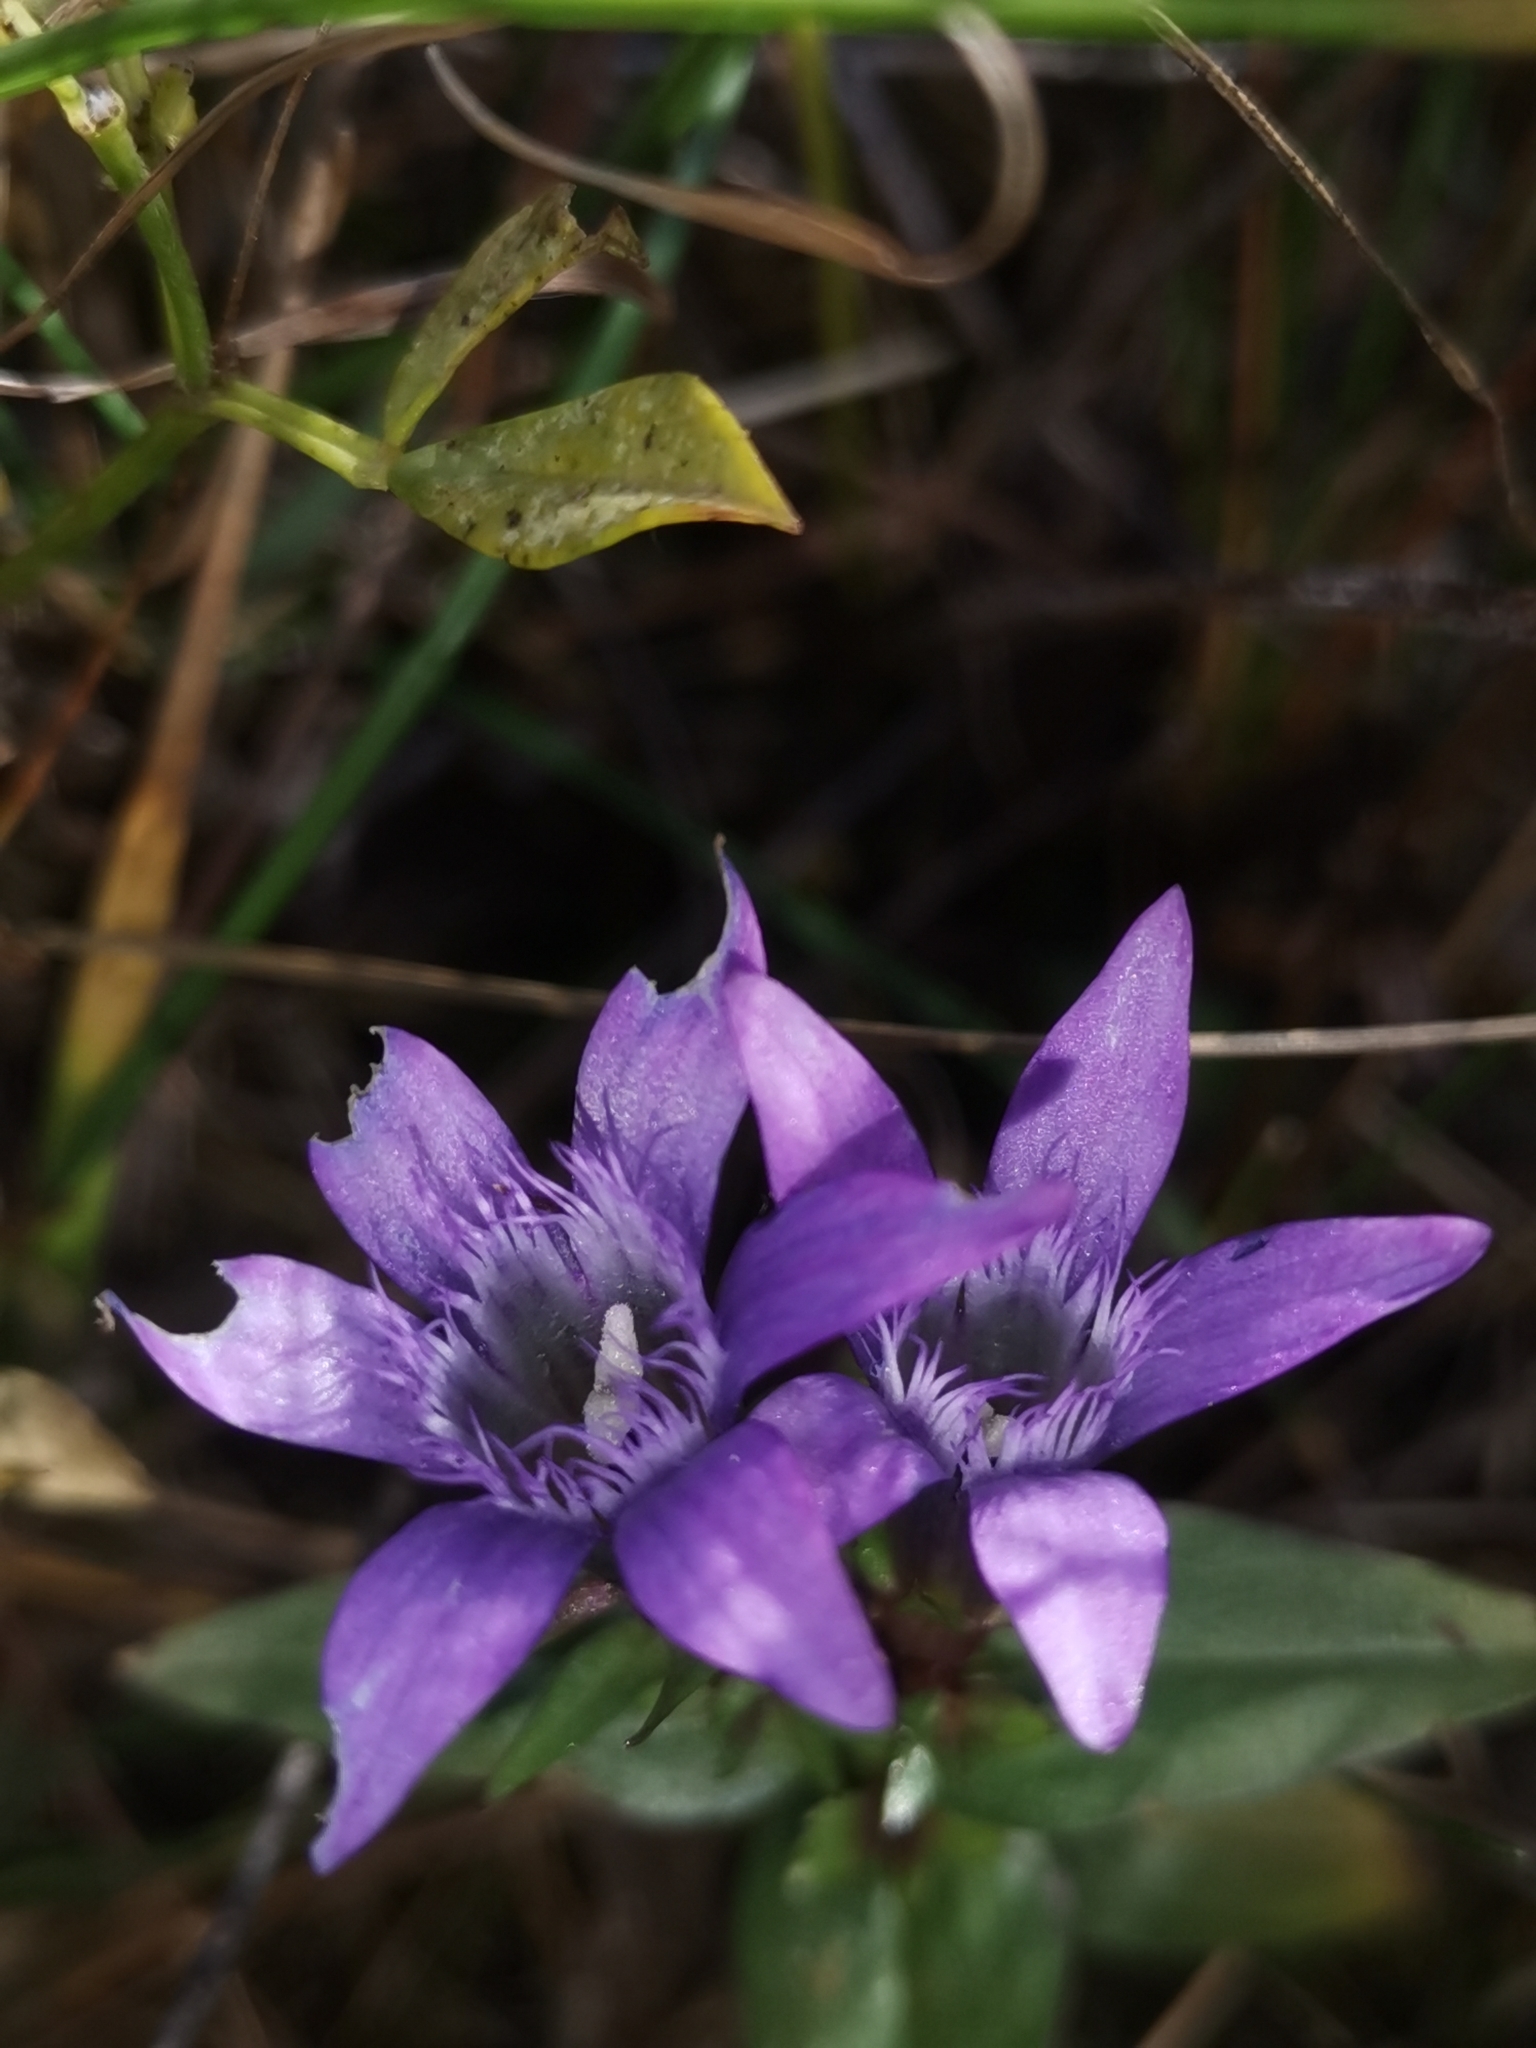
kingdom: Plantae
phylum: Tracheophyta
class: Magnoliopsida
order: Gentianales
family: Gentianaceae
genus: Gentianella
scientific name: Gentianella praecox
